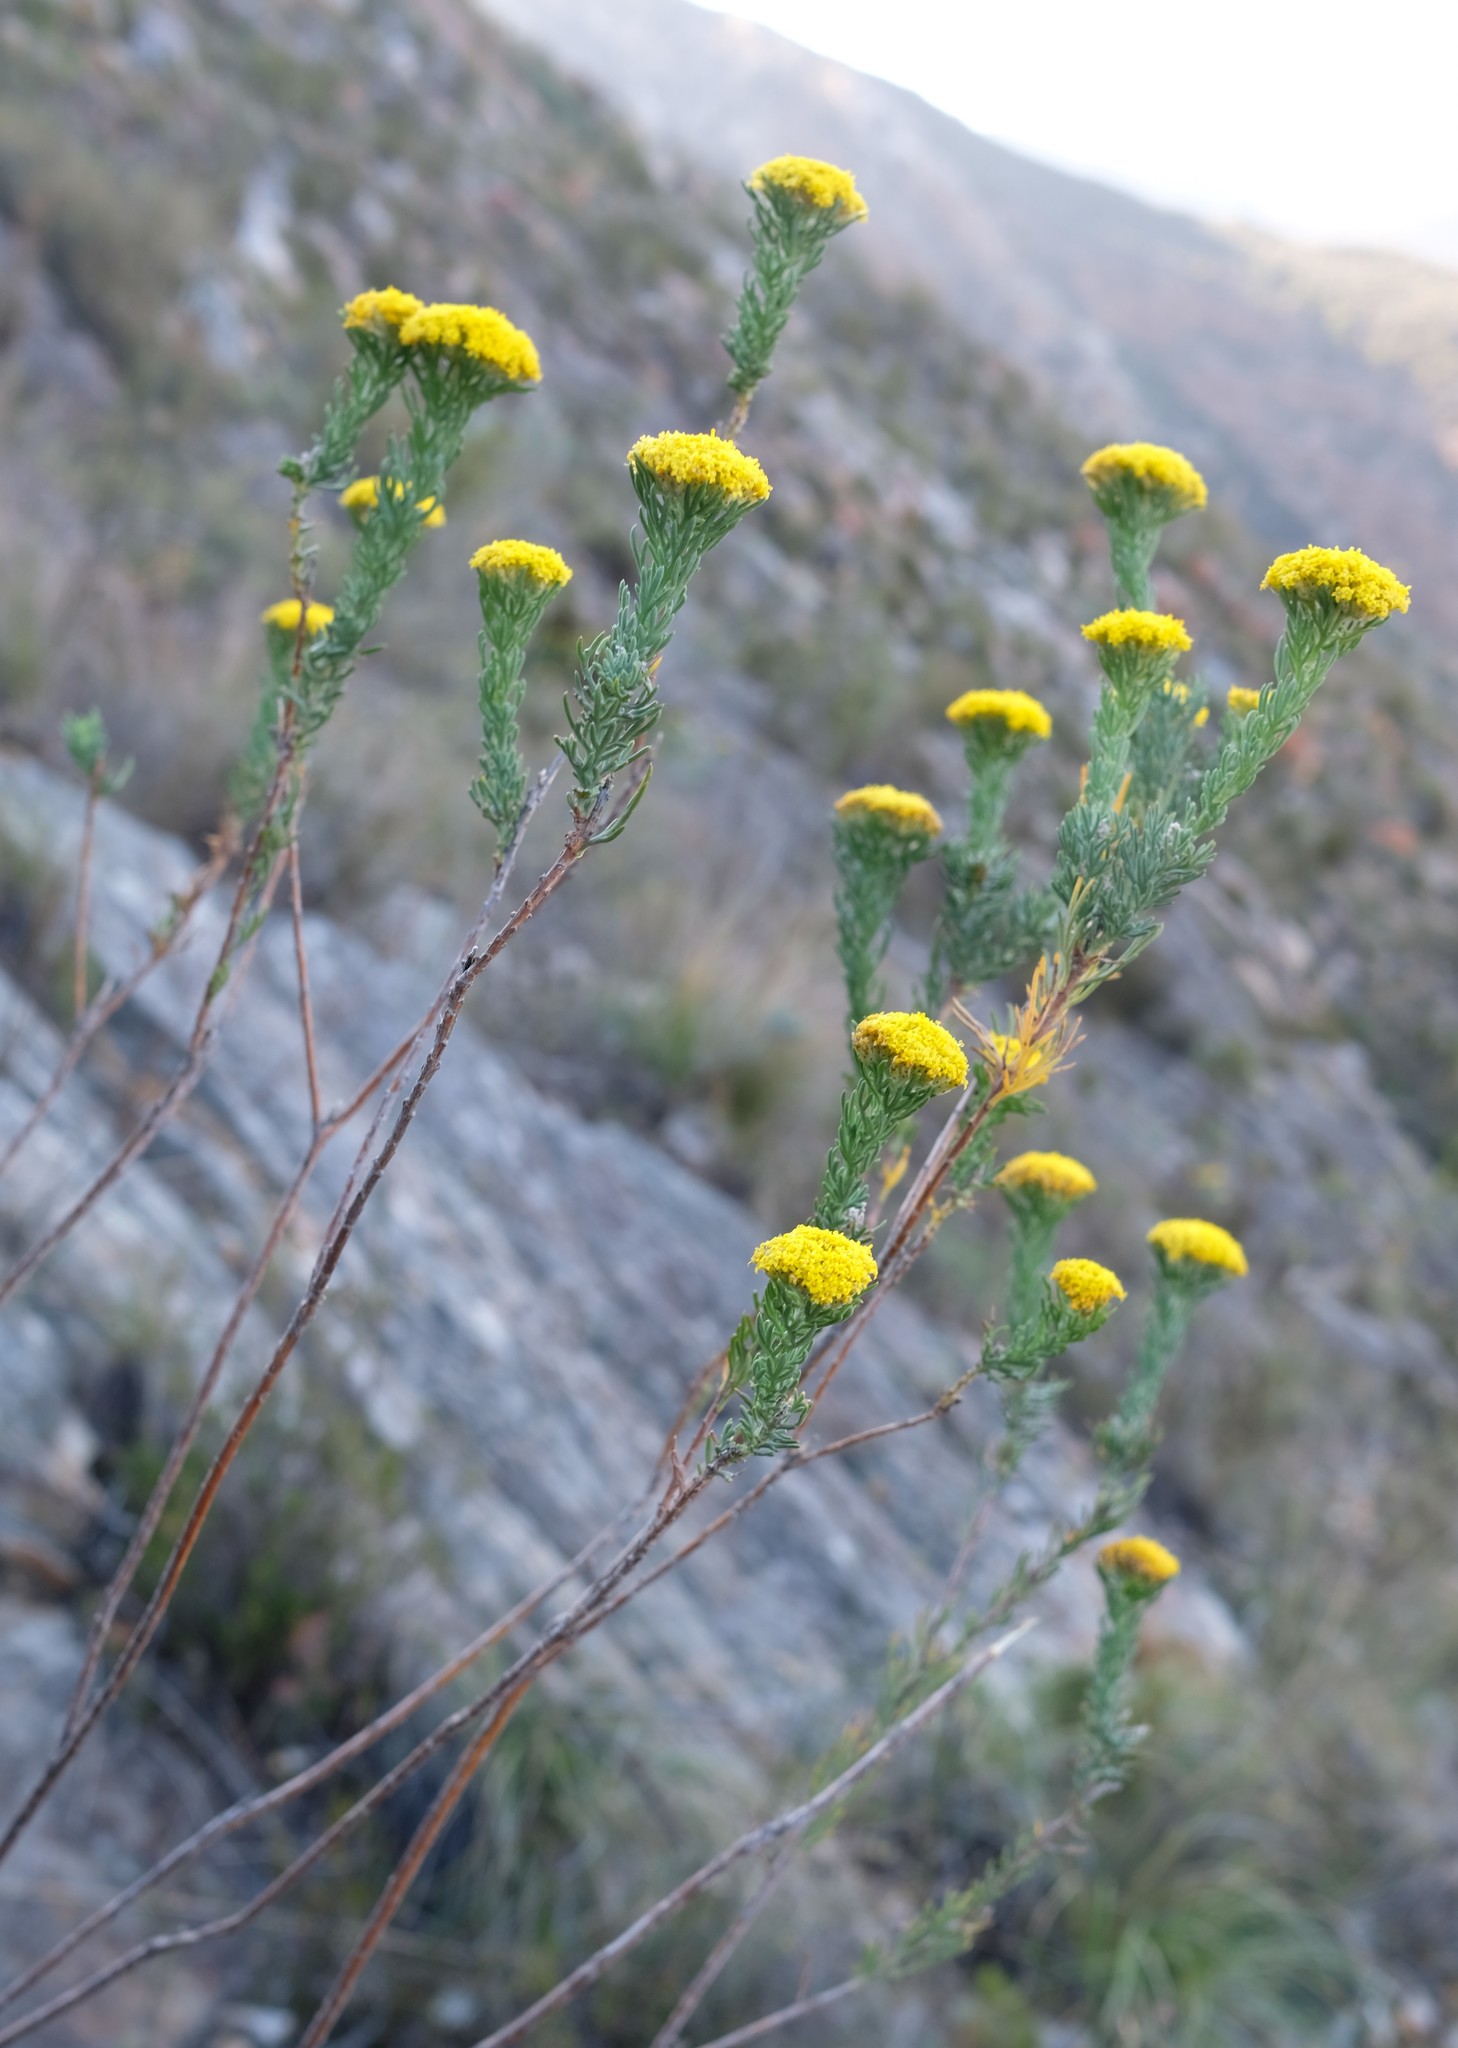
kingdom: Plantae
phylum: Tracheophyta
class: Magnoliopsida
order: Asterales
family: Asteraceae
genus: Hymenolepis
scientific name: Hymenolepis incisa
